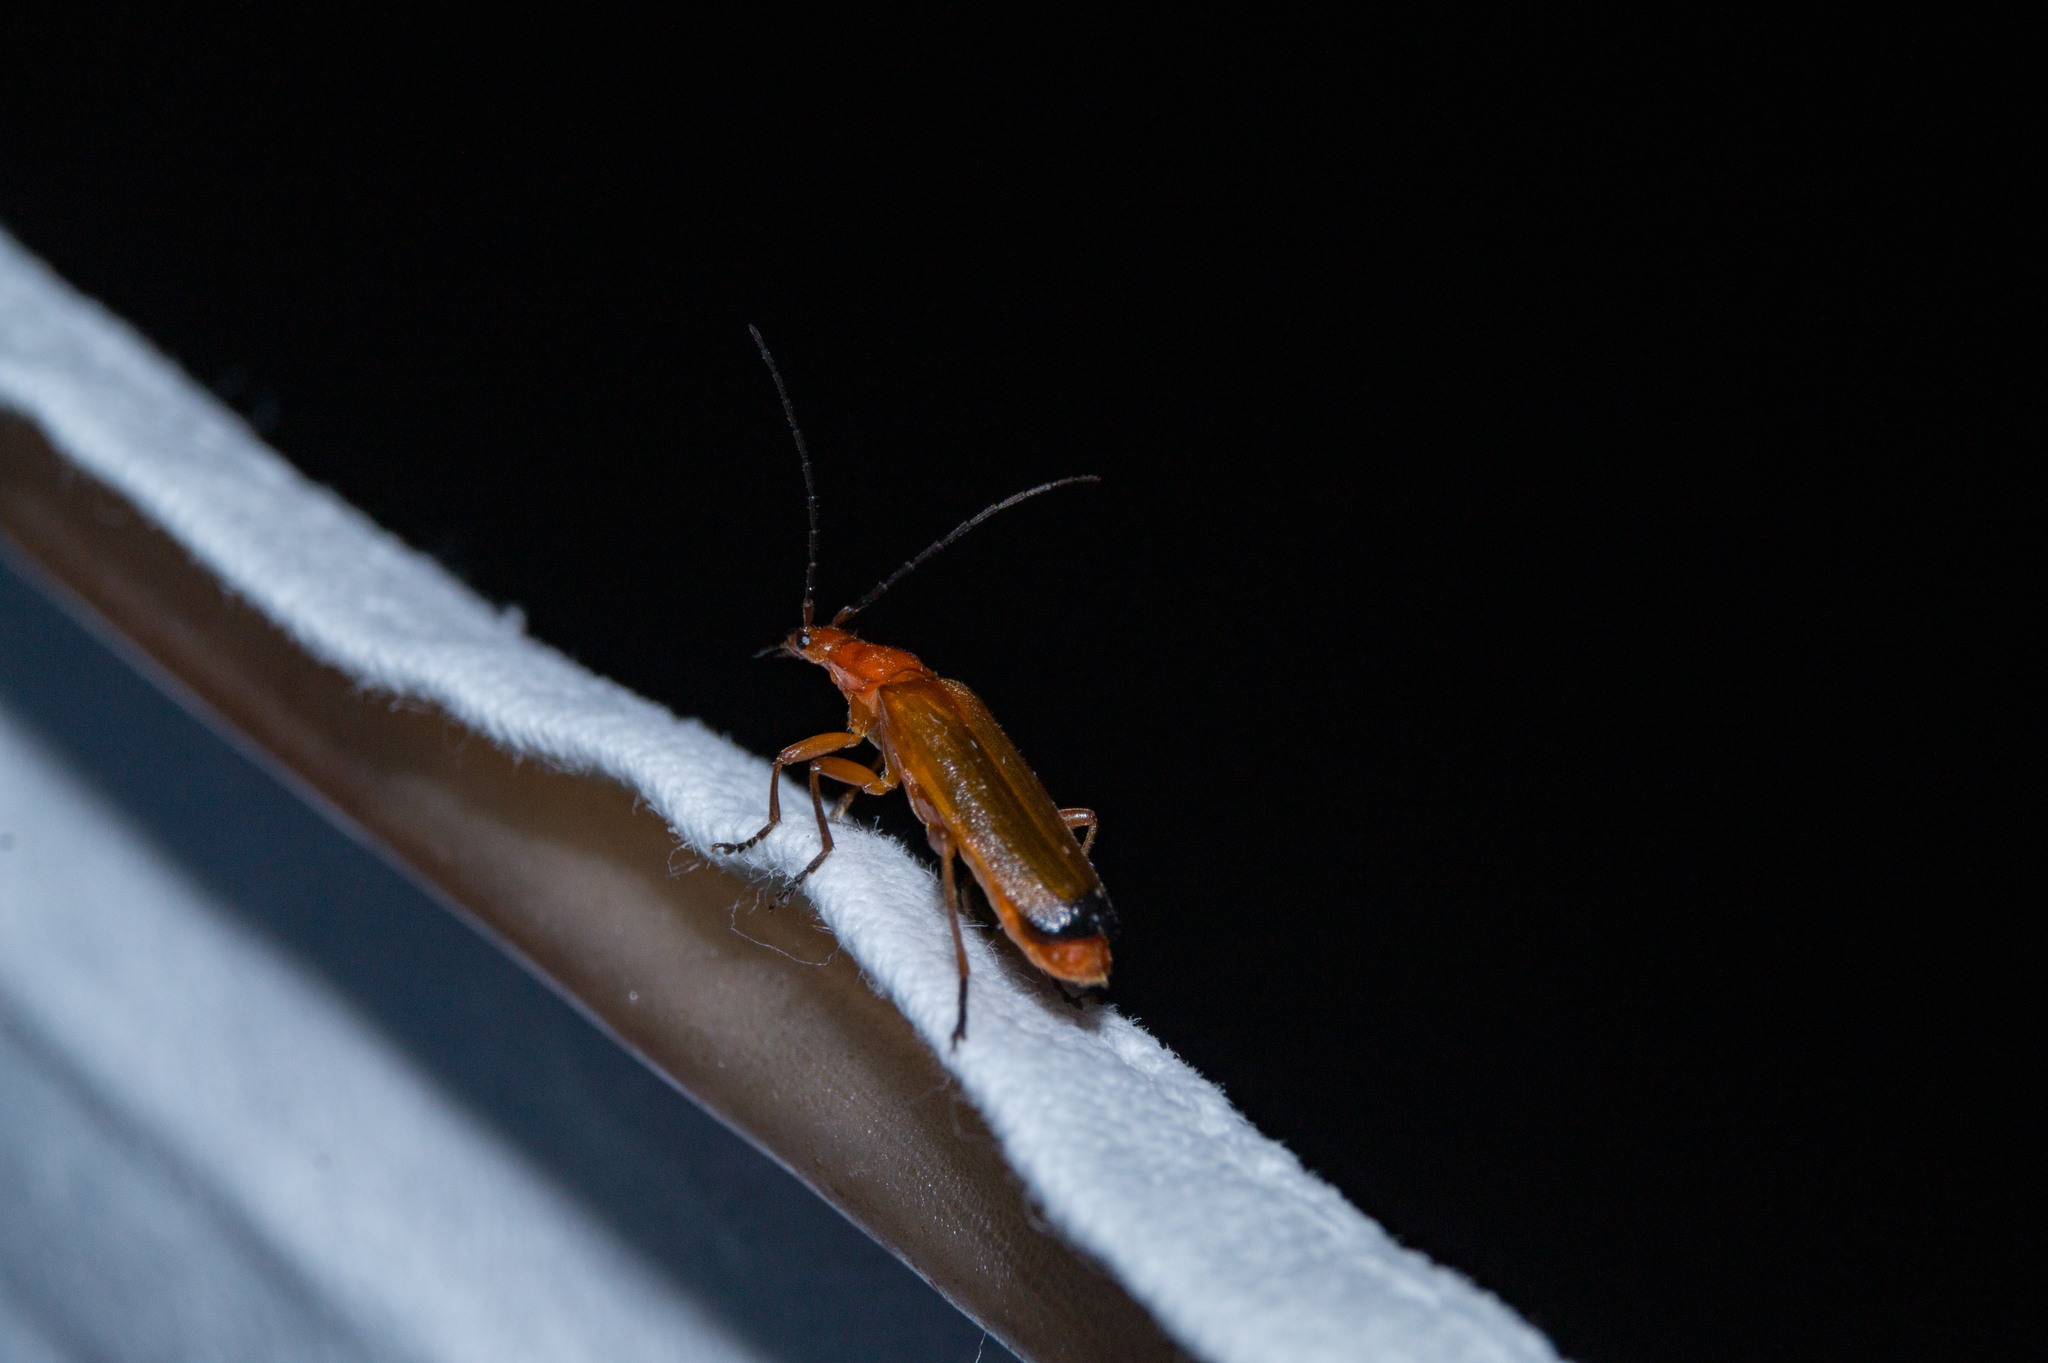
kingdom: Animalia
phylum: Arthropoda
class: Insecta
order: Coleoptera
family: Cantharidae
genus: Rhagonycha
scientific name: Rhagonycha fulva
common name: Common red soldier beetle
